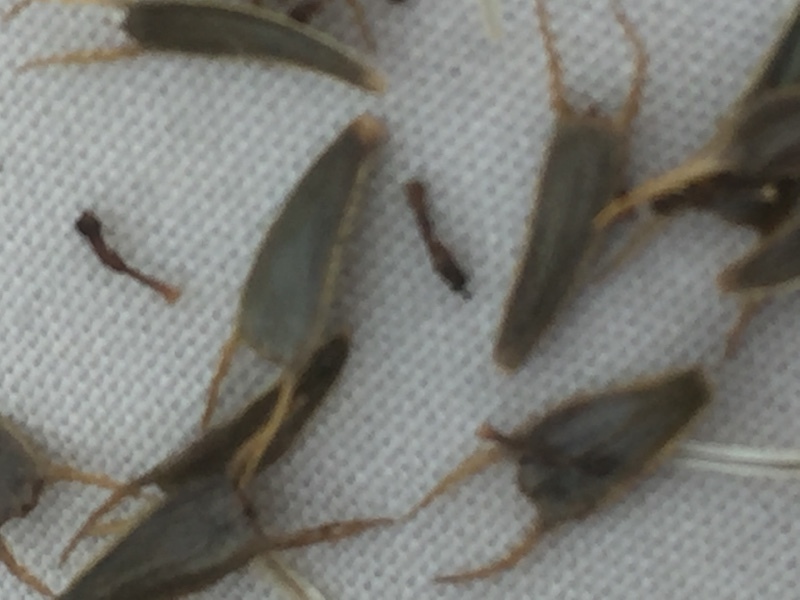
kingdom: Plantae
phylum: Tracheophyta
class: Magnoliopsida
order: Asterales
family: Asteraceae
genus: Bidens
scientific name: Bidens radiata
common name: Radiating bur-marigold
